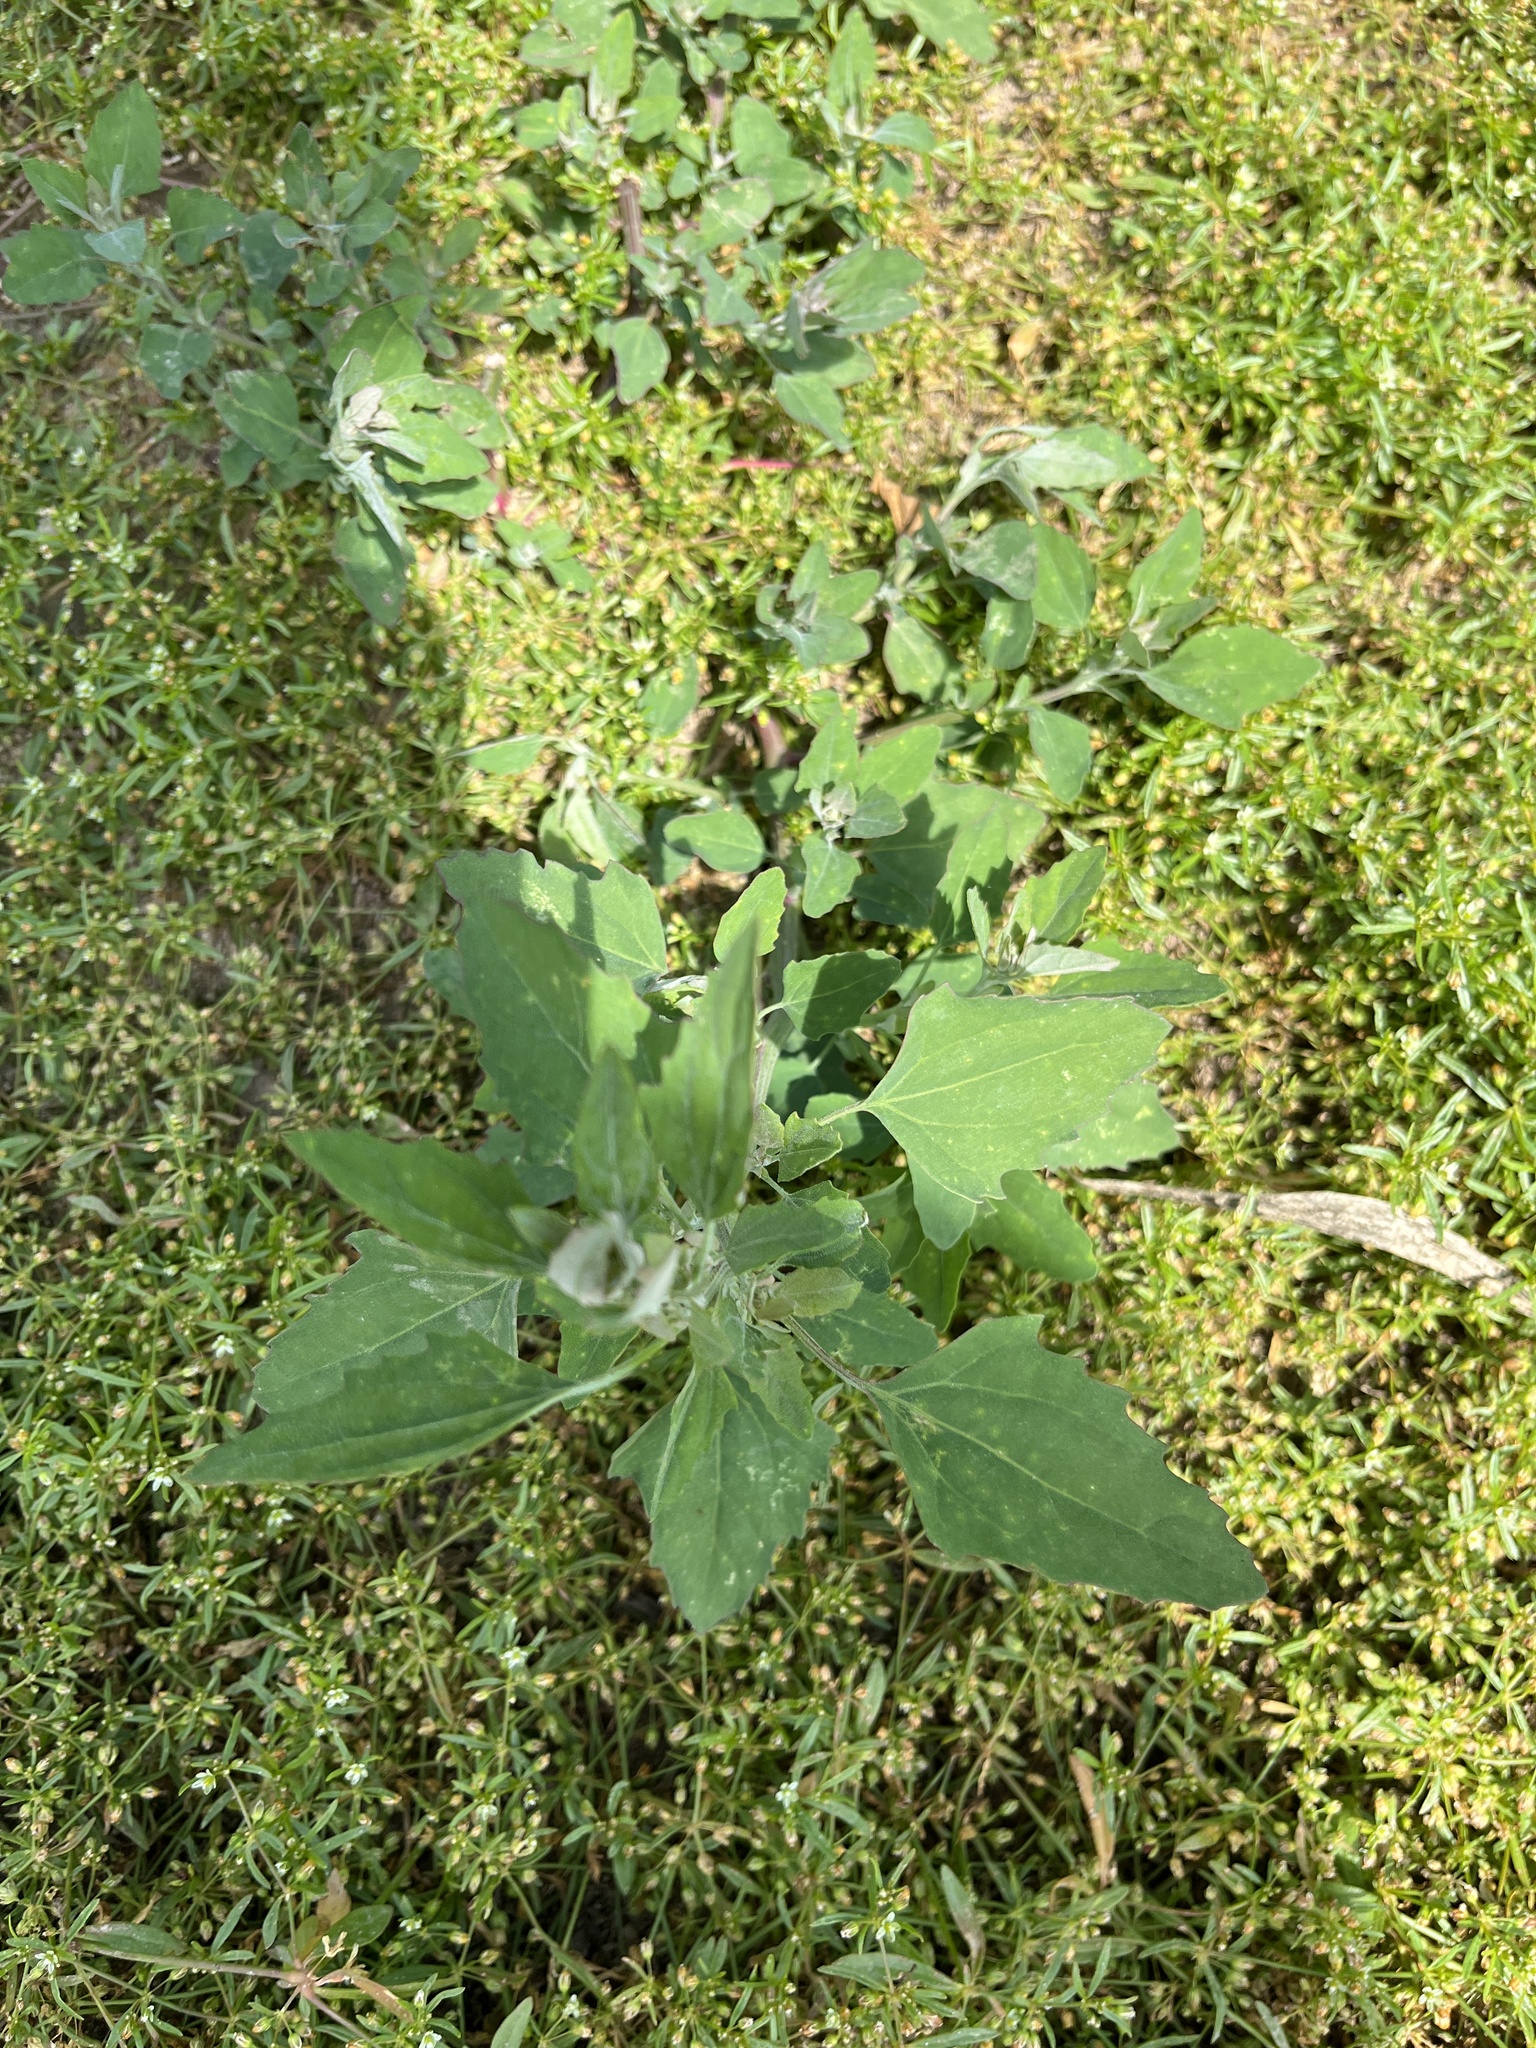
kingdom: Plantae
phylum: Tracheophyta
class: Magnoliopsida
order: Caryophyllales
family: Amaranthaceae
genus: Chenopodium
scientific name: Chenopodium album
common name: Fat-hen
